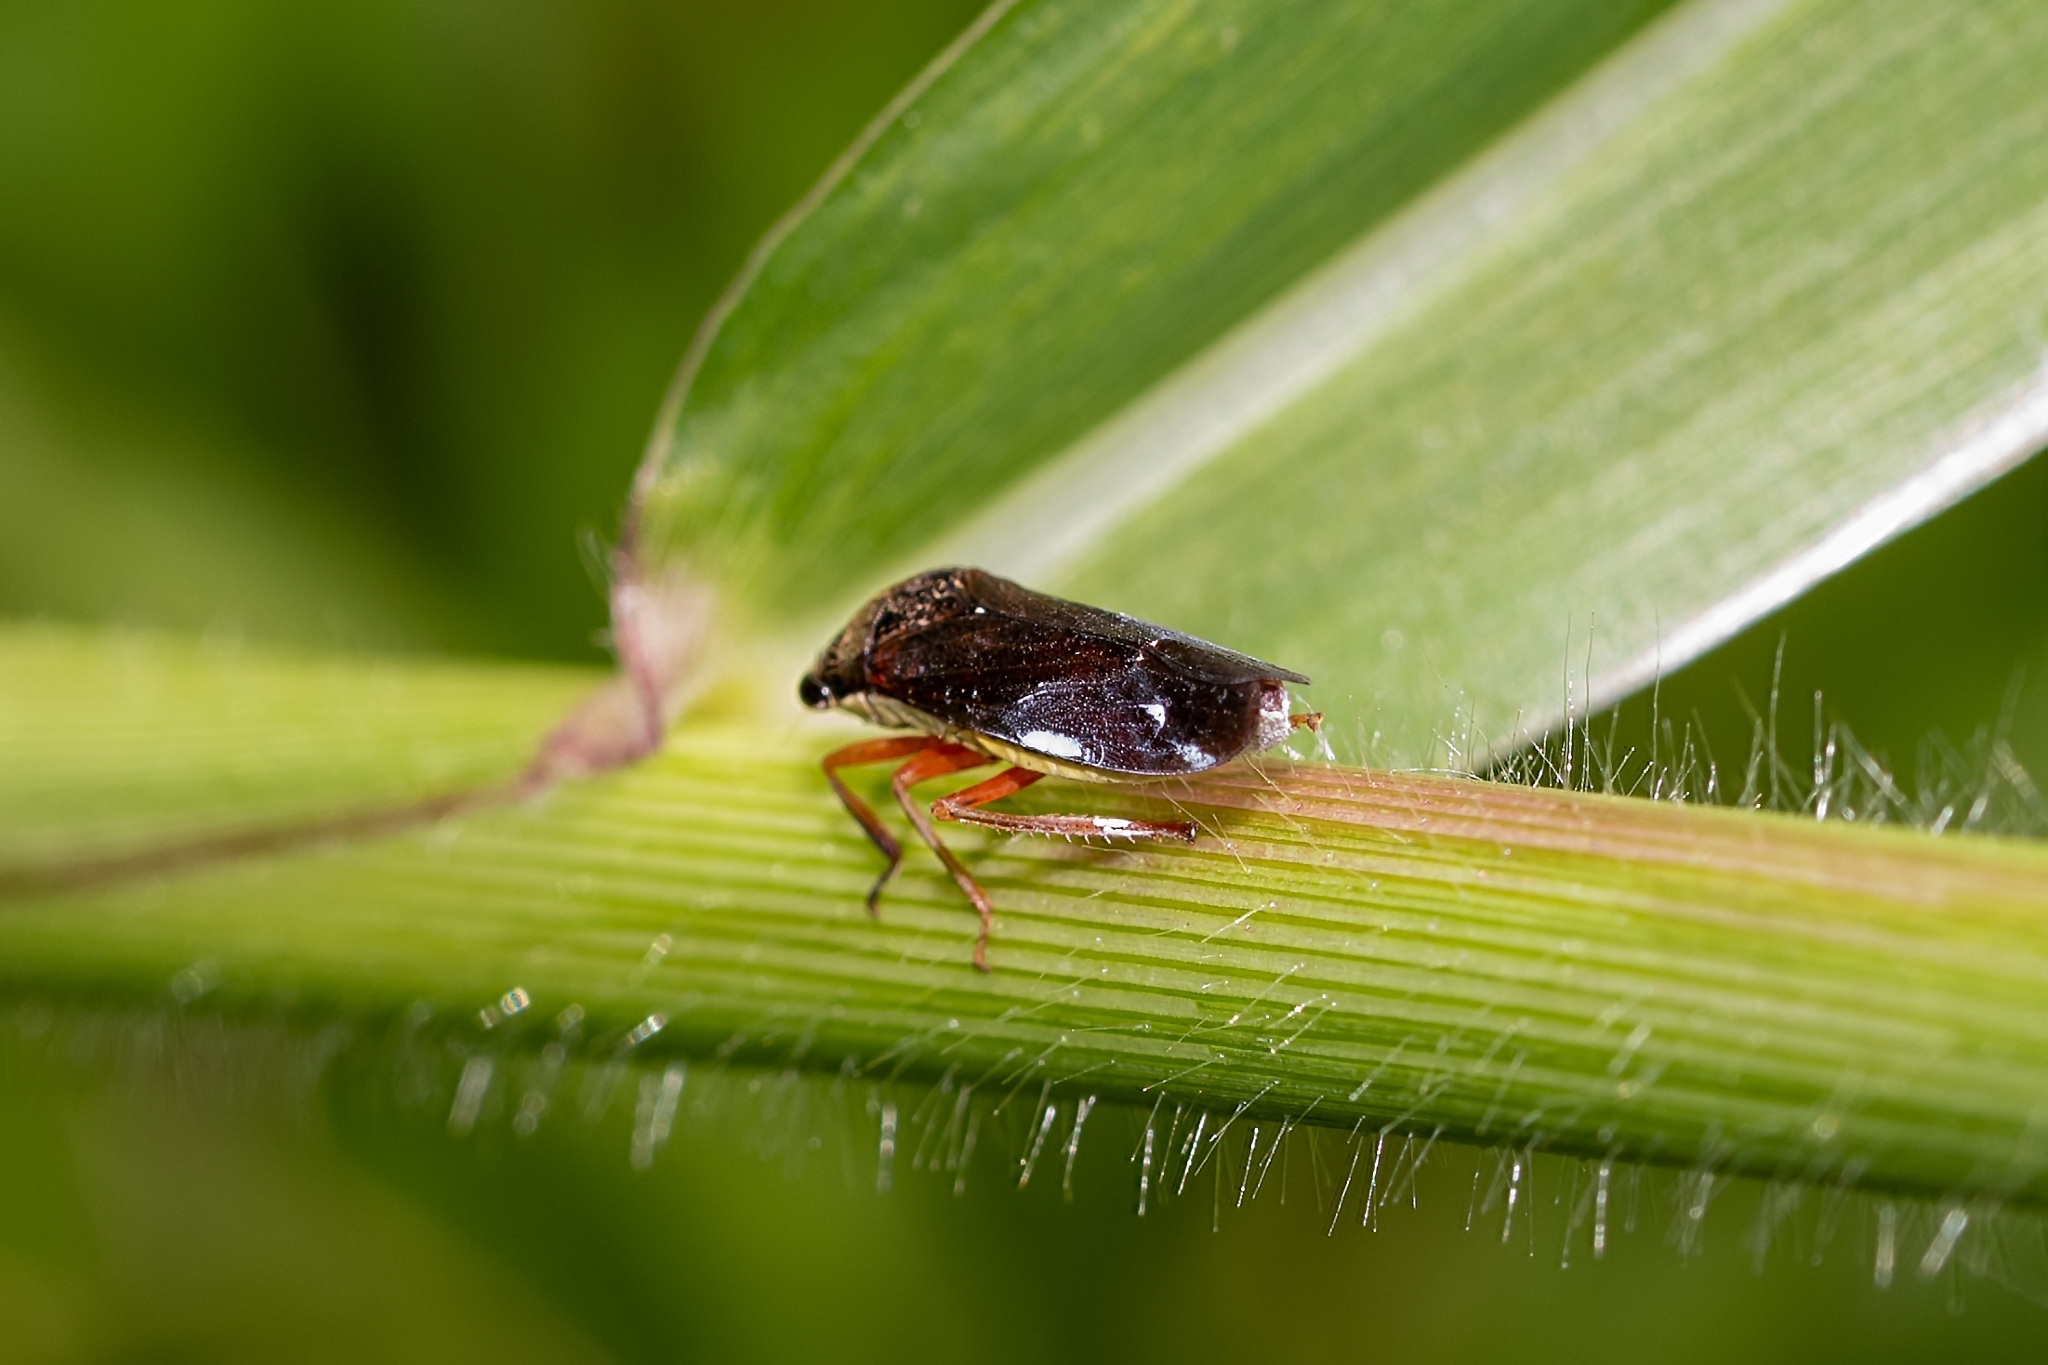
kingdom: Animalia
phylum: Arthropoda
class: Insecta
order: Hemiptera
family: Cicadellidae
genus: Homalodisca
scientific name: Homalodisca insolita
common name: Johnson grass sharpshooter
